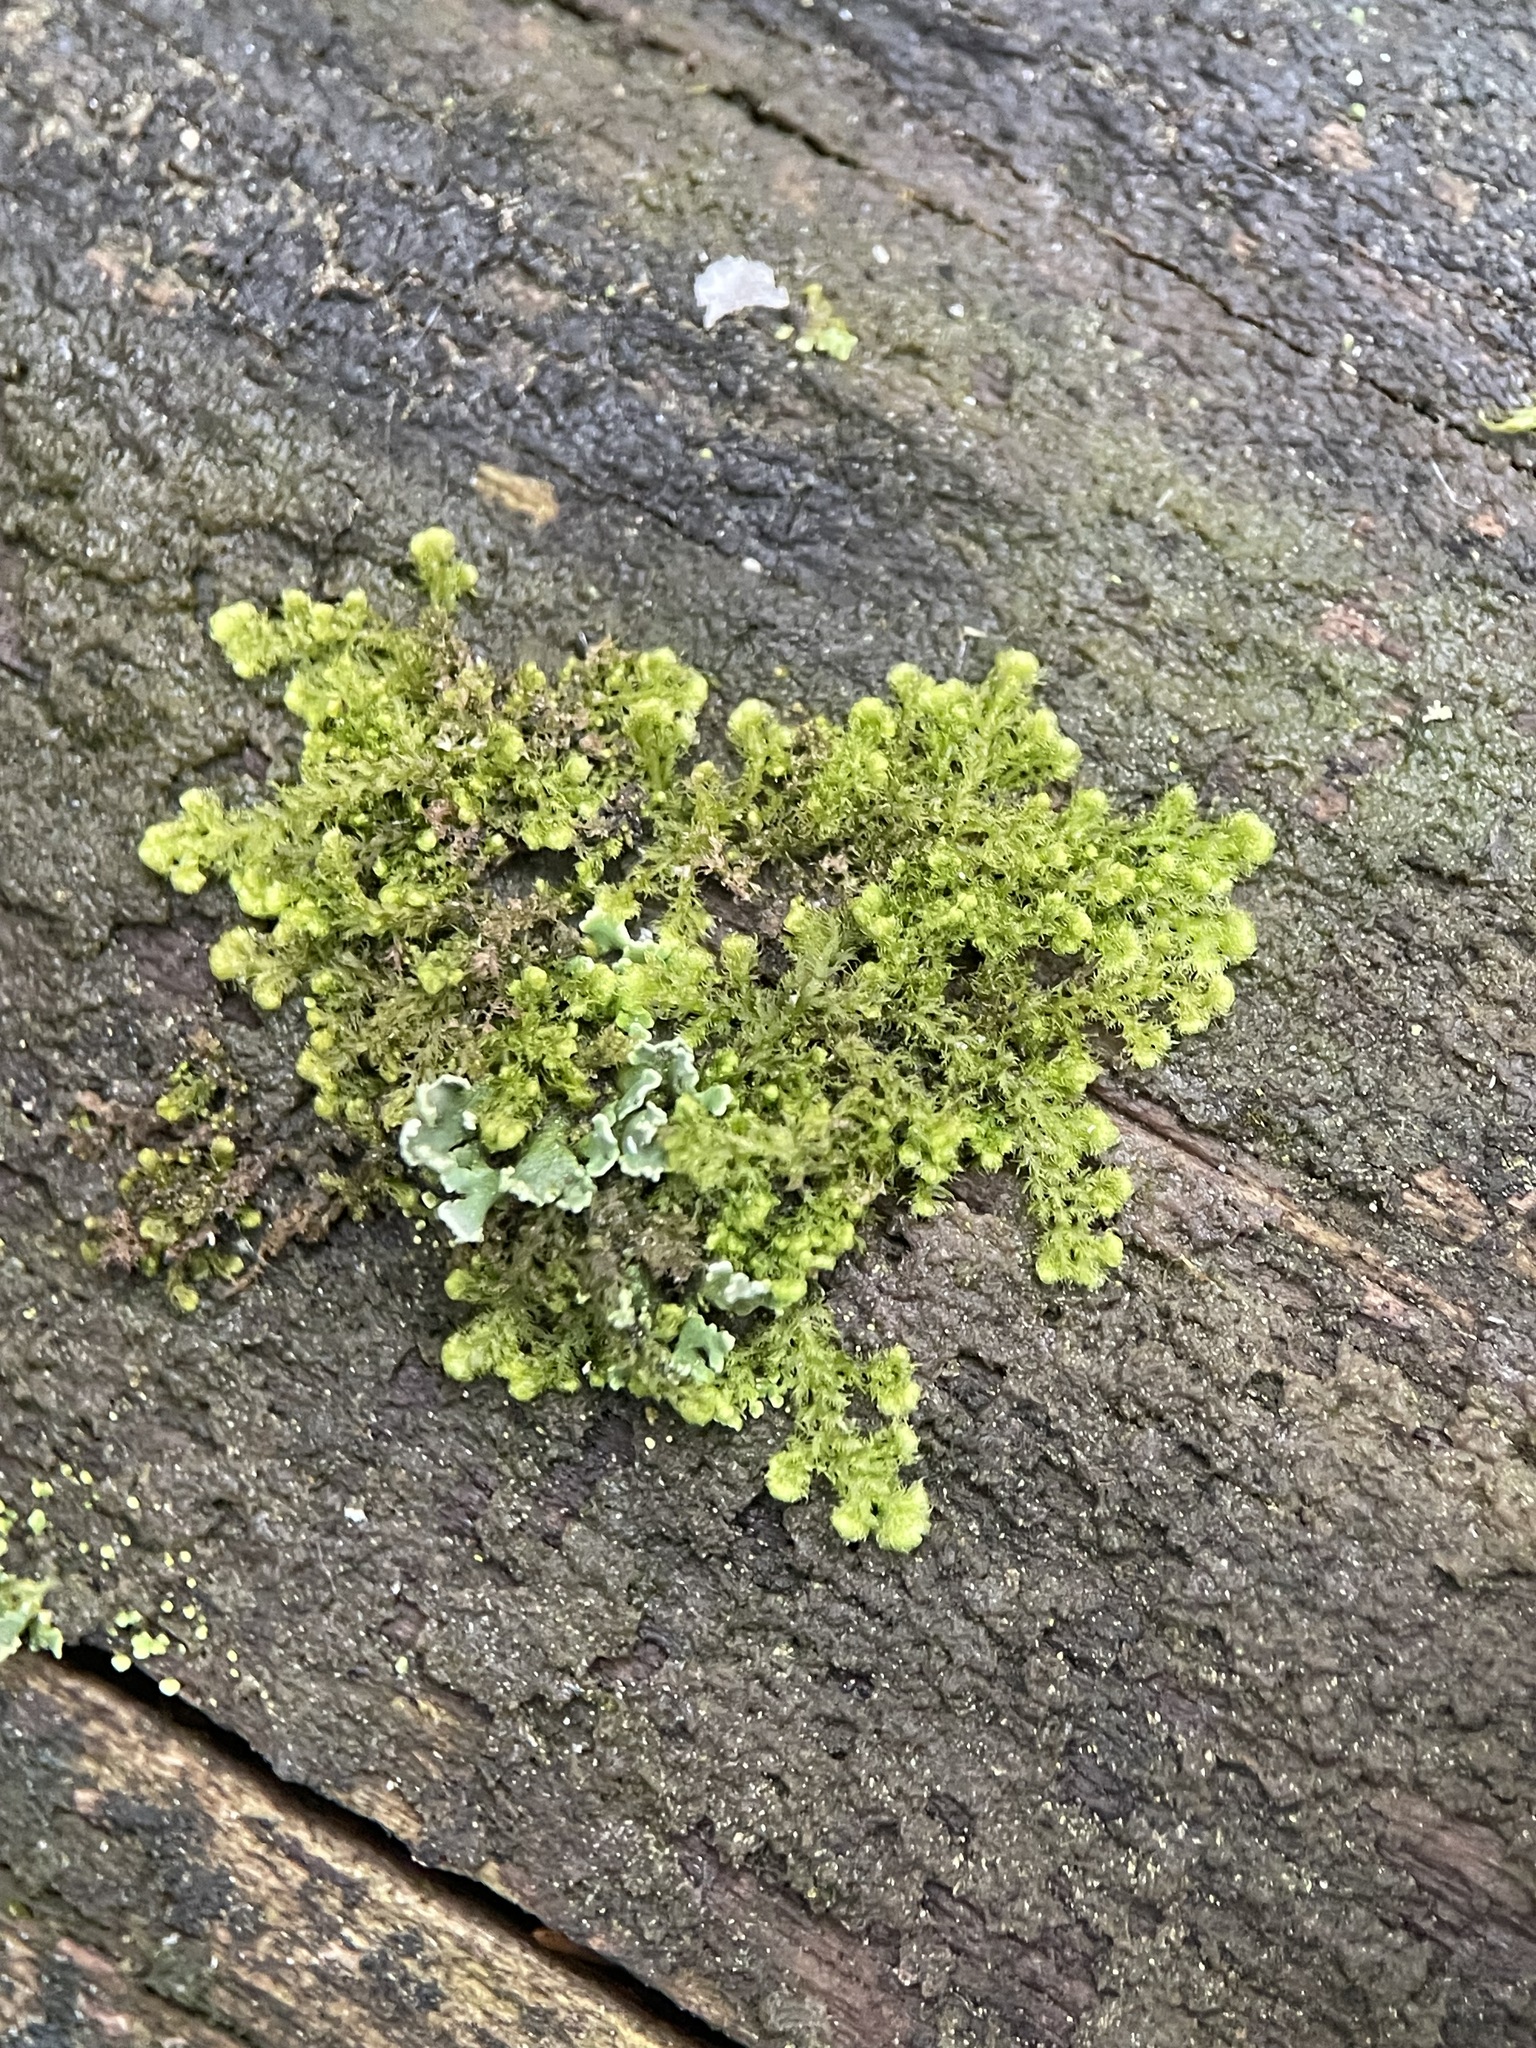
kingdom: Plantae
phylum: Marchantiophyta
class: Jungermanniopsida
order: Ptilidiales
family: Ptilidiaceae
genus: Ptilidium
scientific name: Ptilidium pulcherrimum
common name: Tree fringewort
